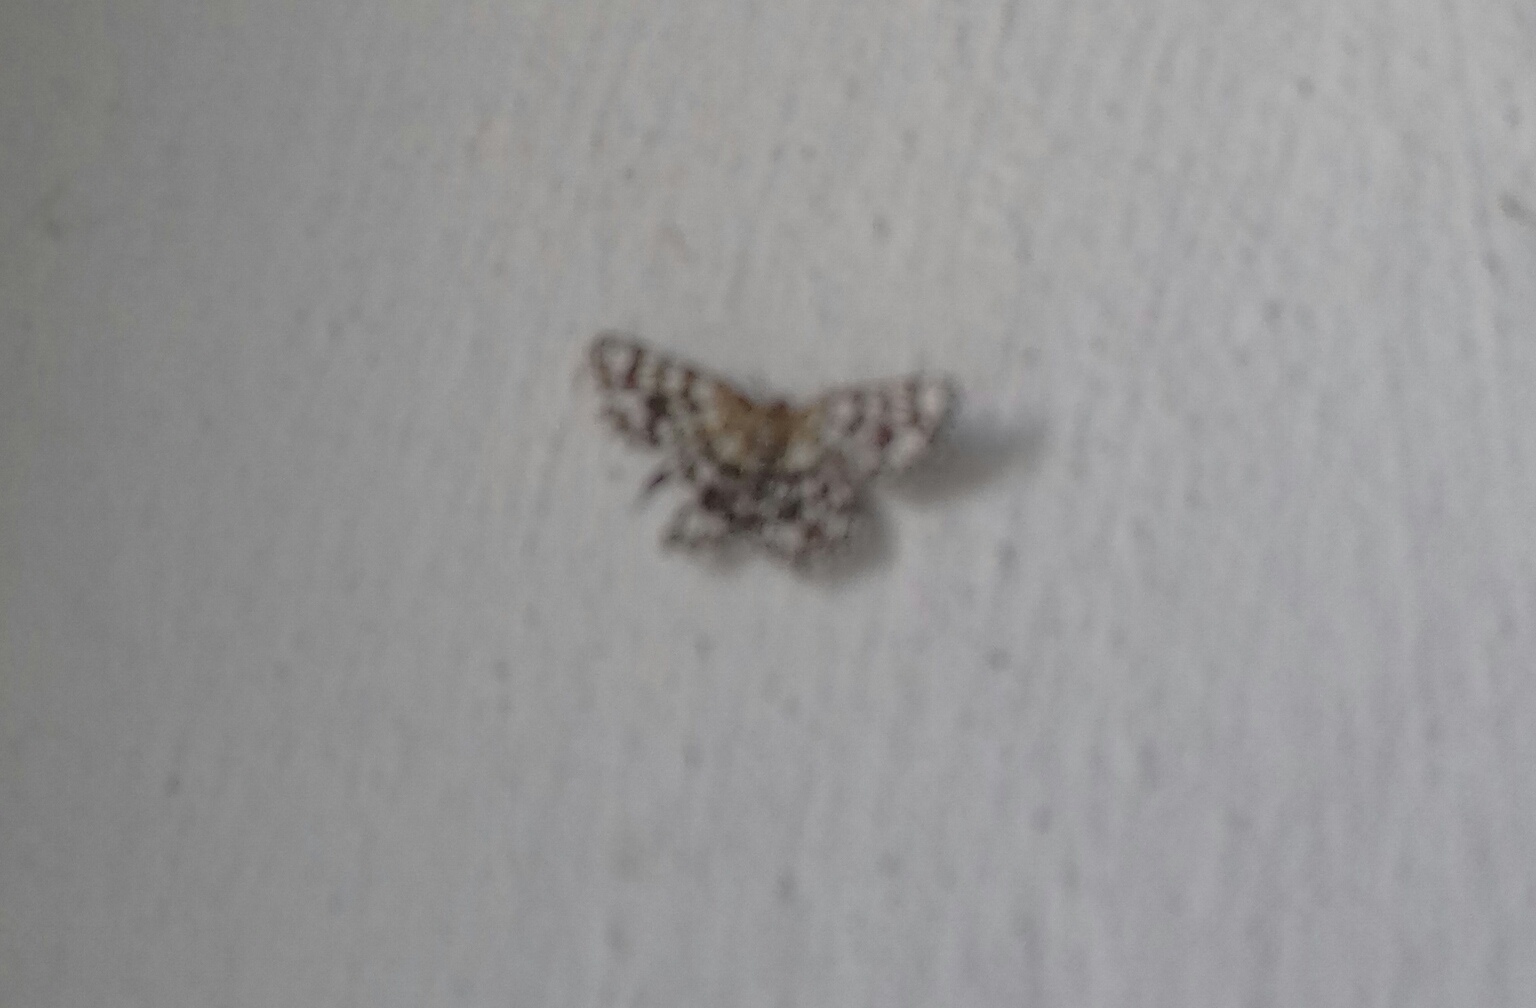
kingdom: Animalia
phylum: Arthropoda
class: Insecta
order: Lepidoptera
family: Geometridae
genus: Chiasmia
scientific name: Chiasmia clathrata
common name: Latticed heath
